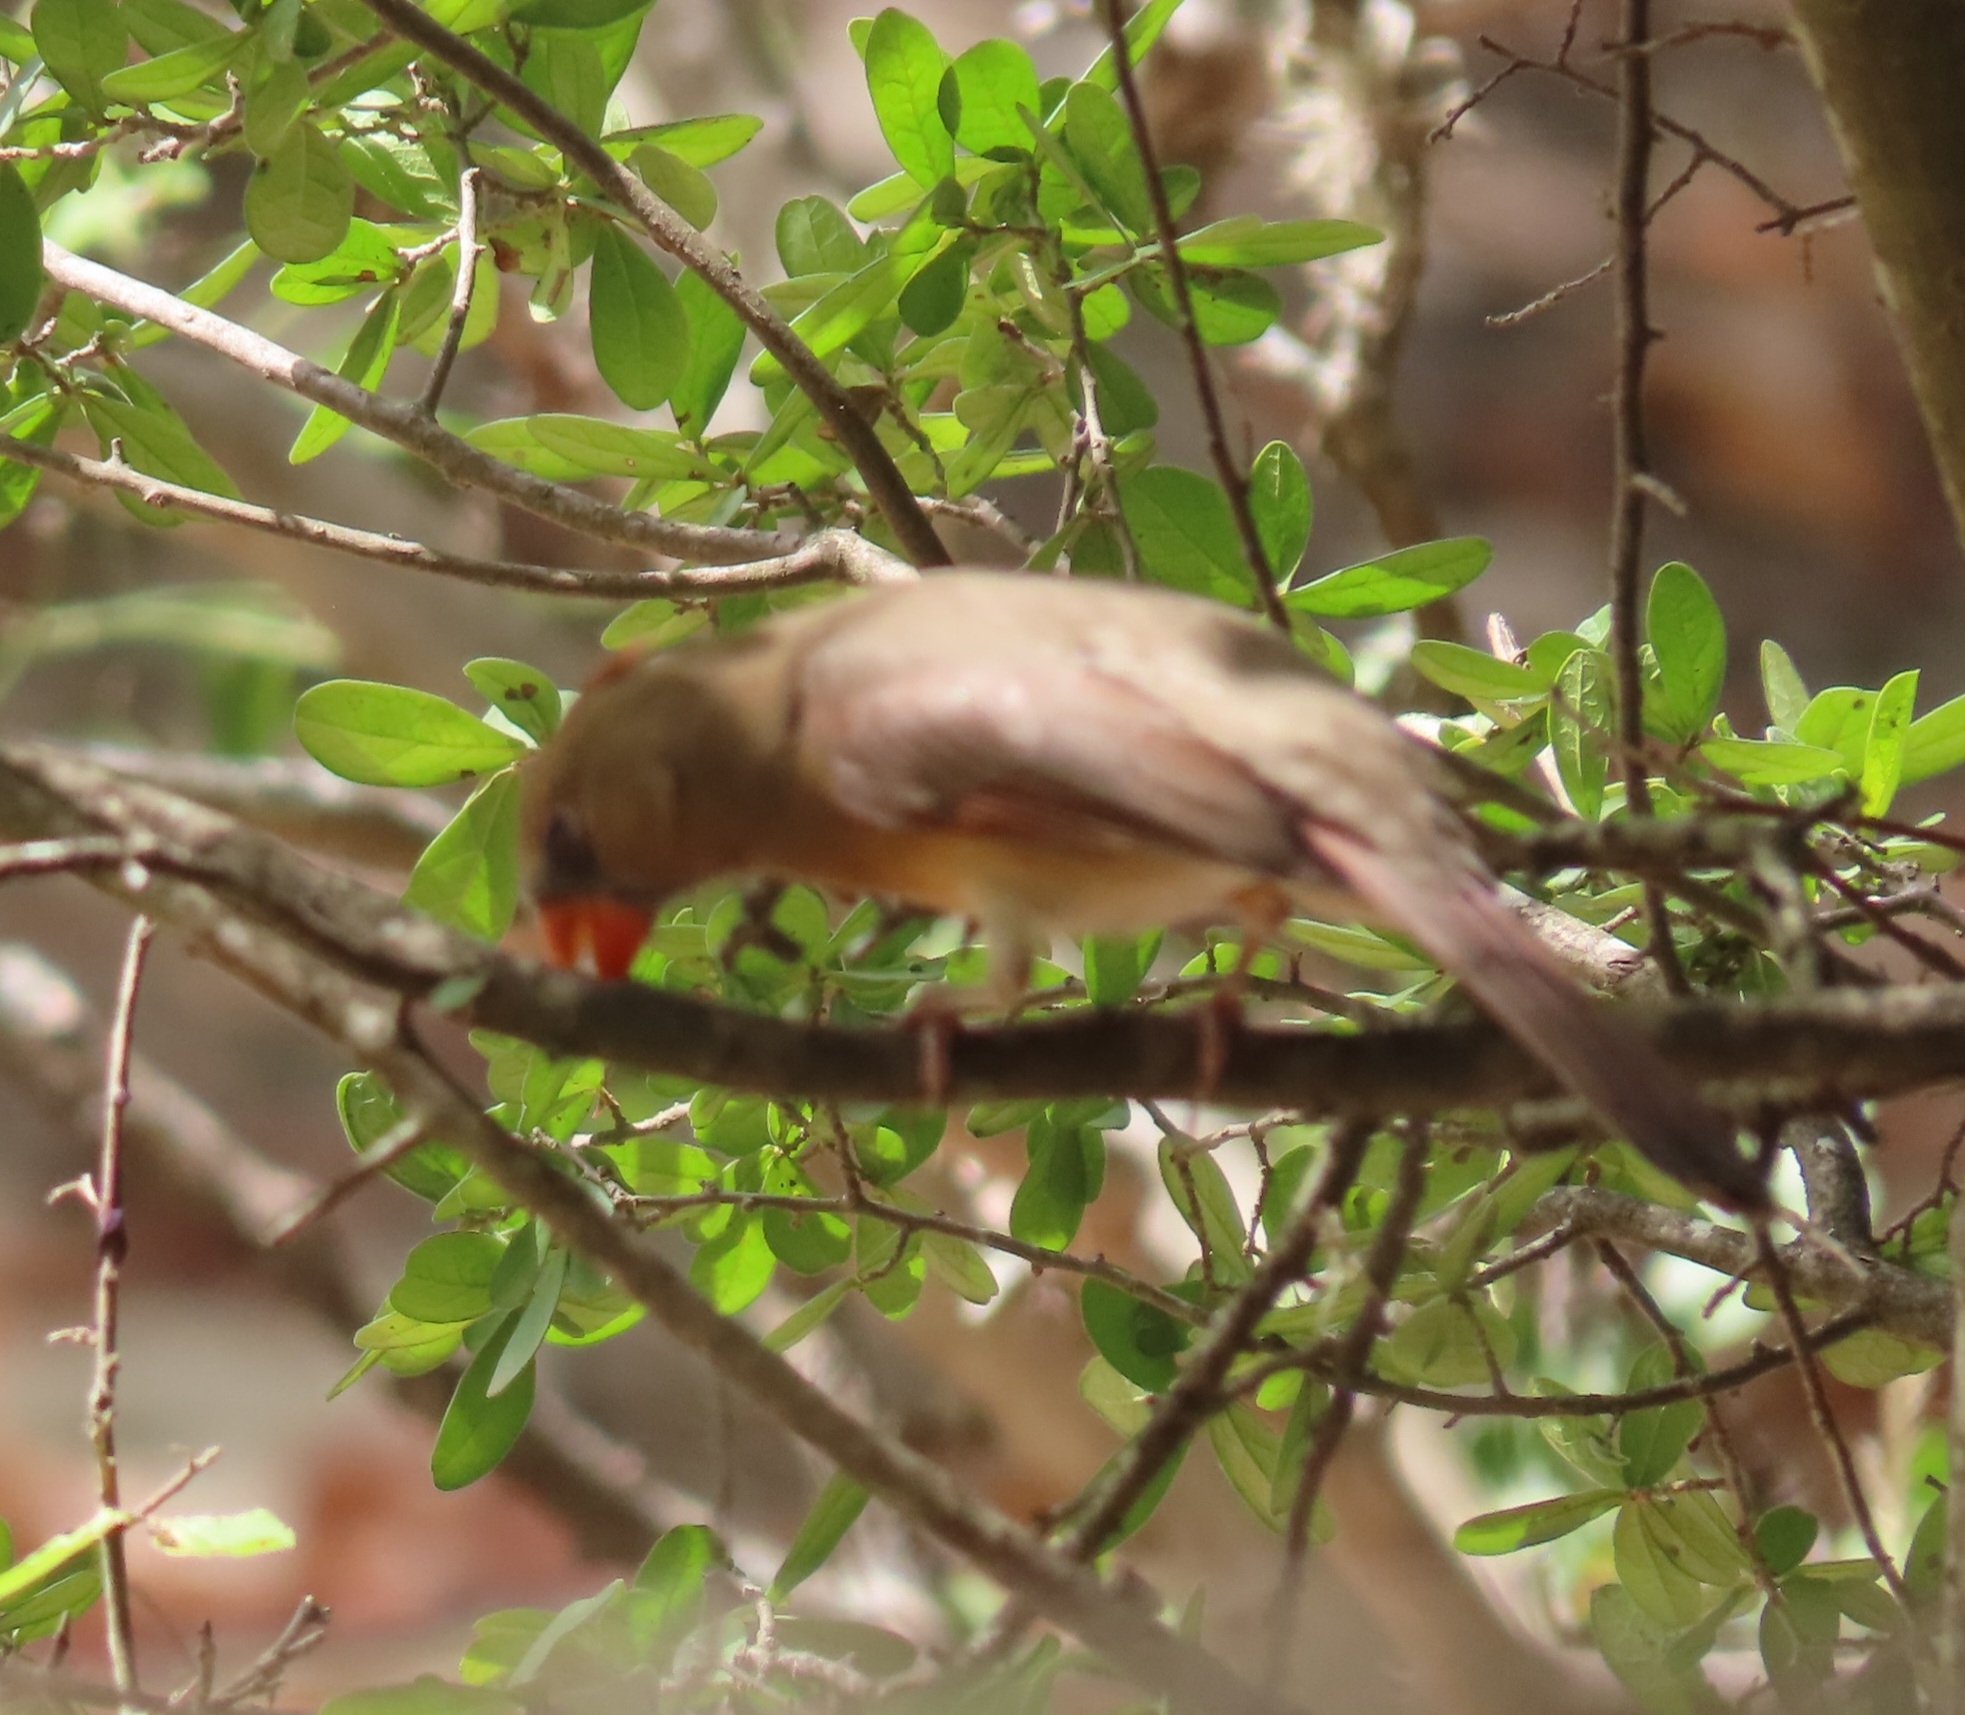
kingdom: Animalia
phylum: Chordata
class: Aves
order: Passeriformes
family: Cardinalidae
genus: Cardinalis
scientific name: Cardinalis cardinalis
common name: Northern cardinal
